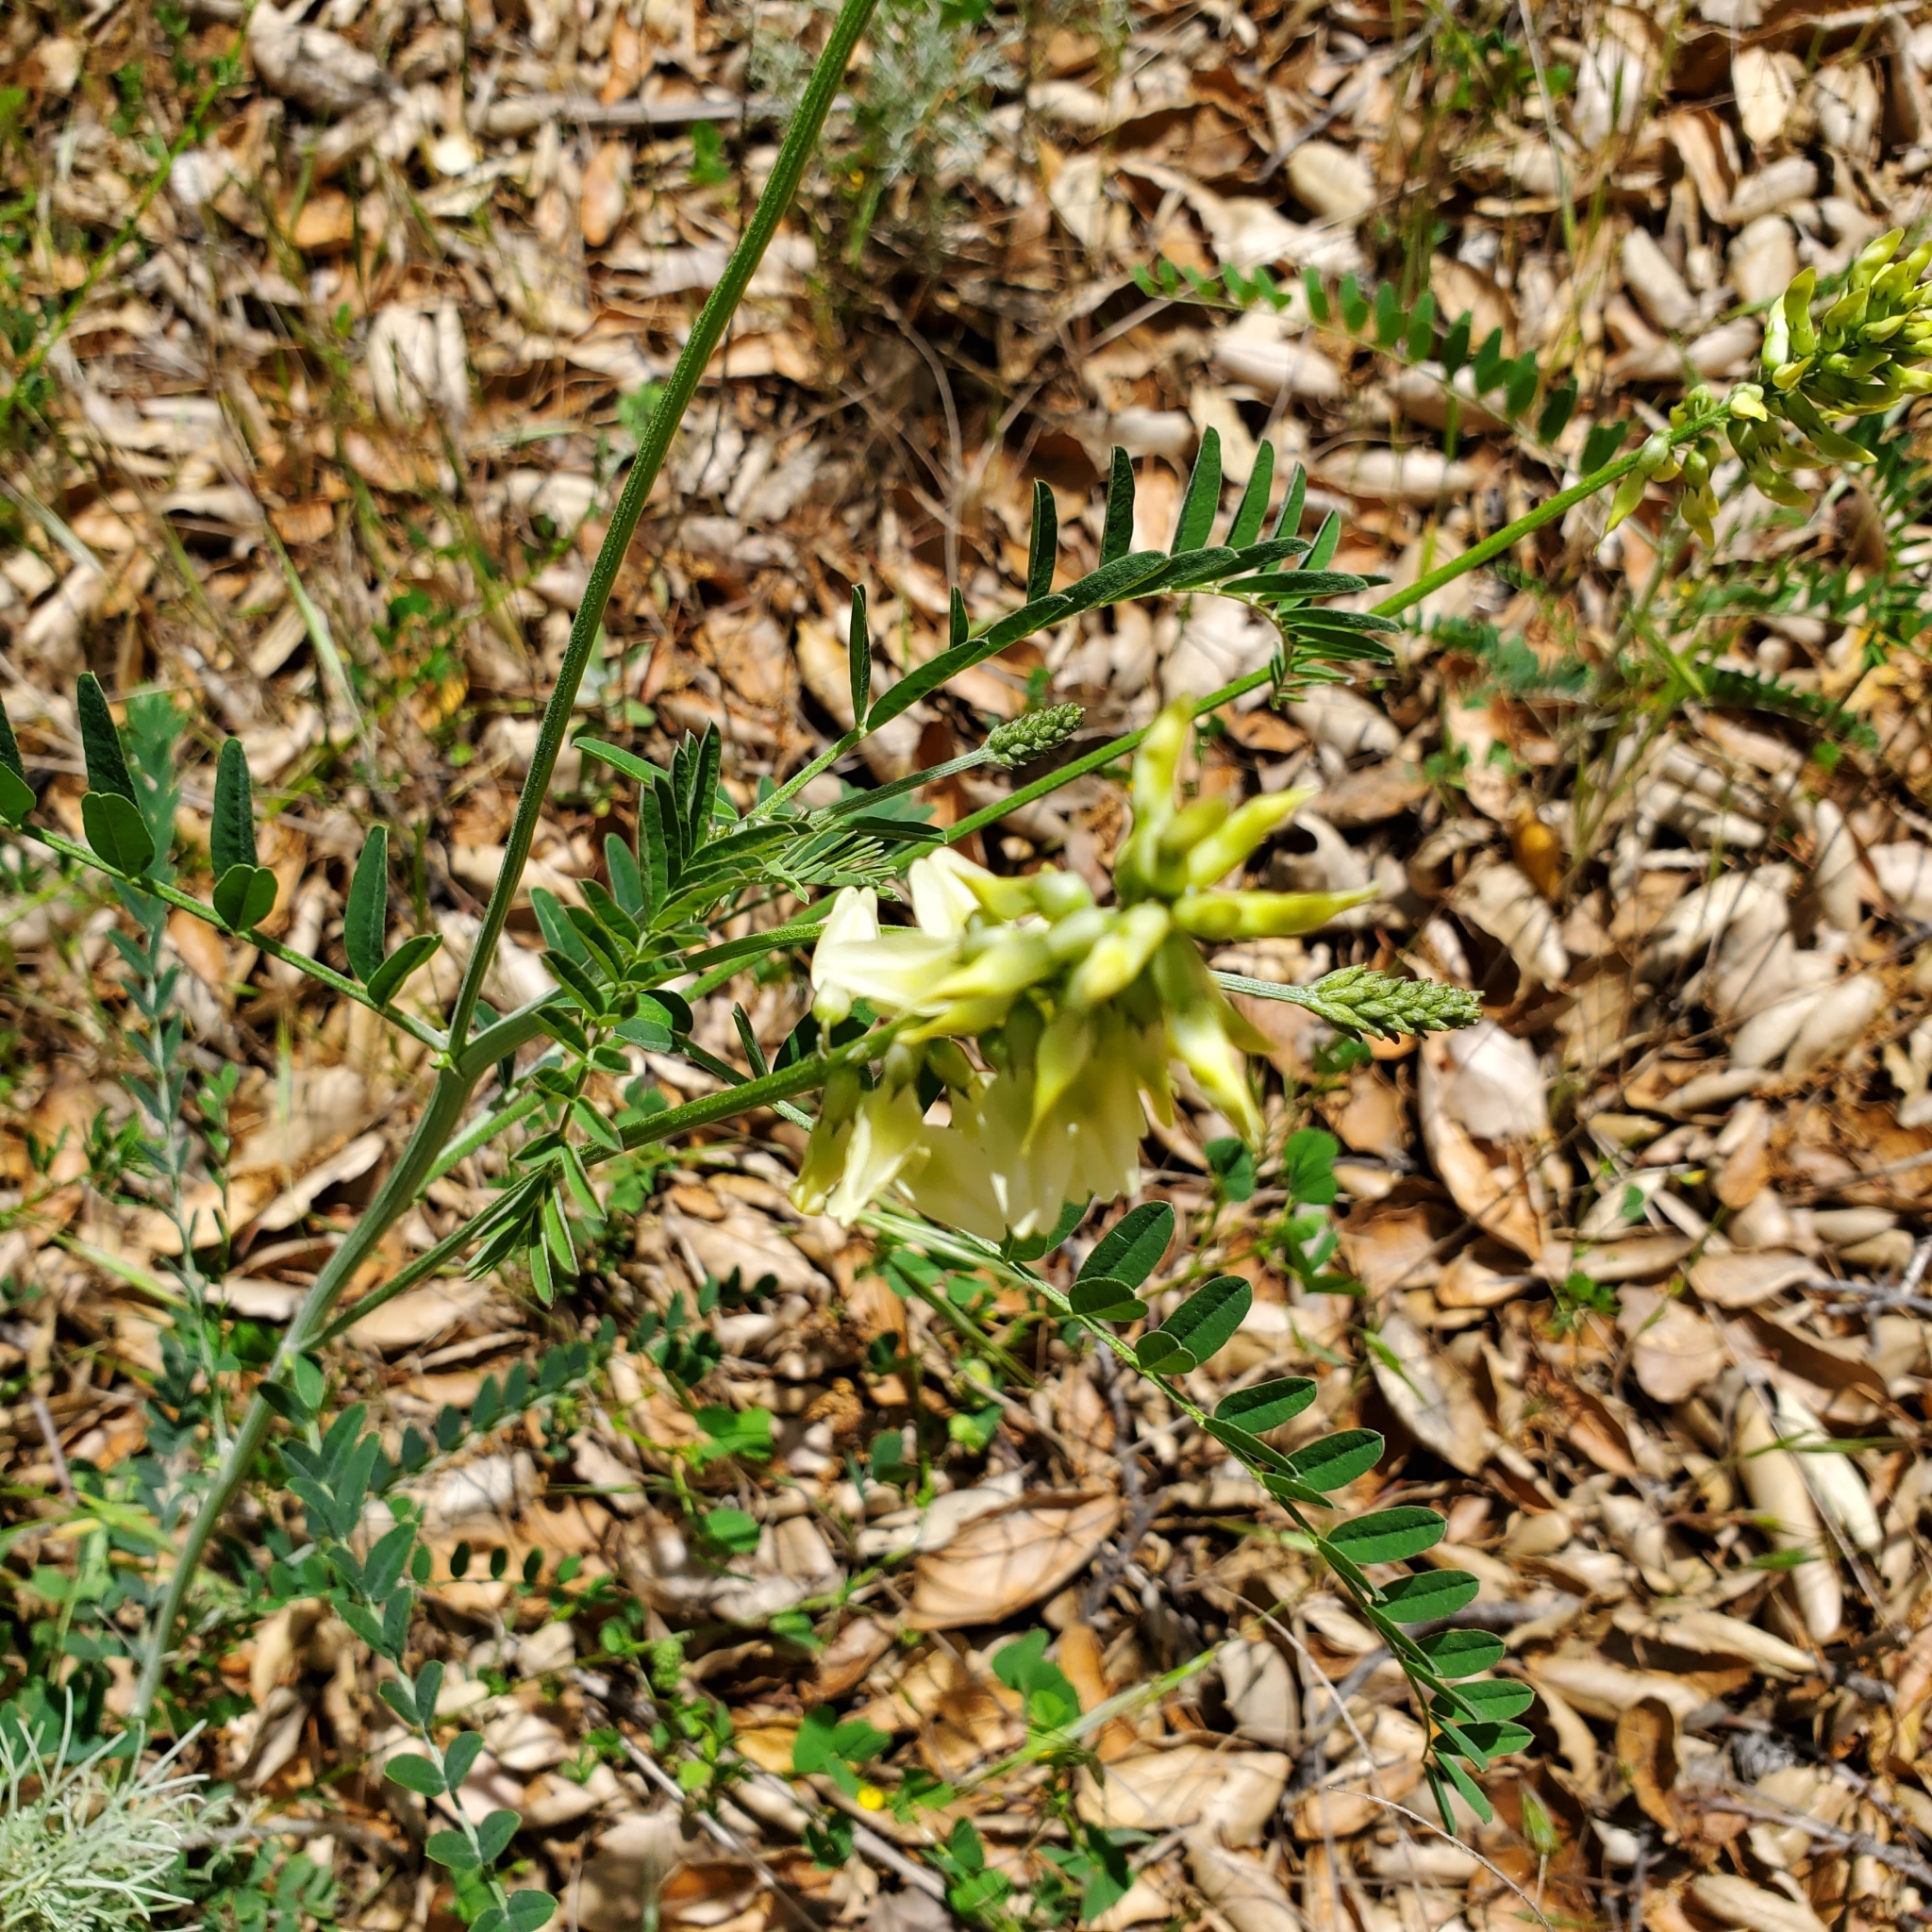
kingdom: Plantae
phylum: Tracheophyta
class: Magnoliopsida
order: Fabales
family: Fabaceae
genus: Astragalus
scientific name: Astragalus trichopodus
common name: Santa barbara milk-vetch
